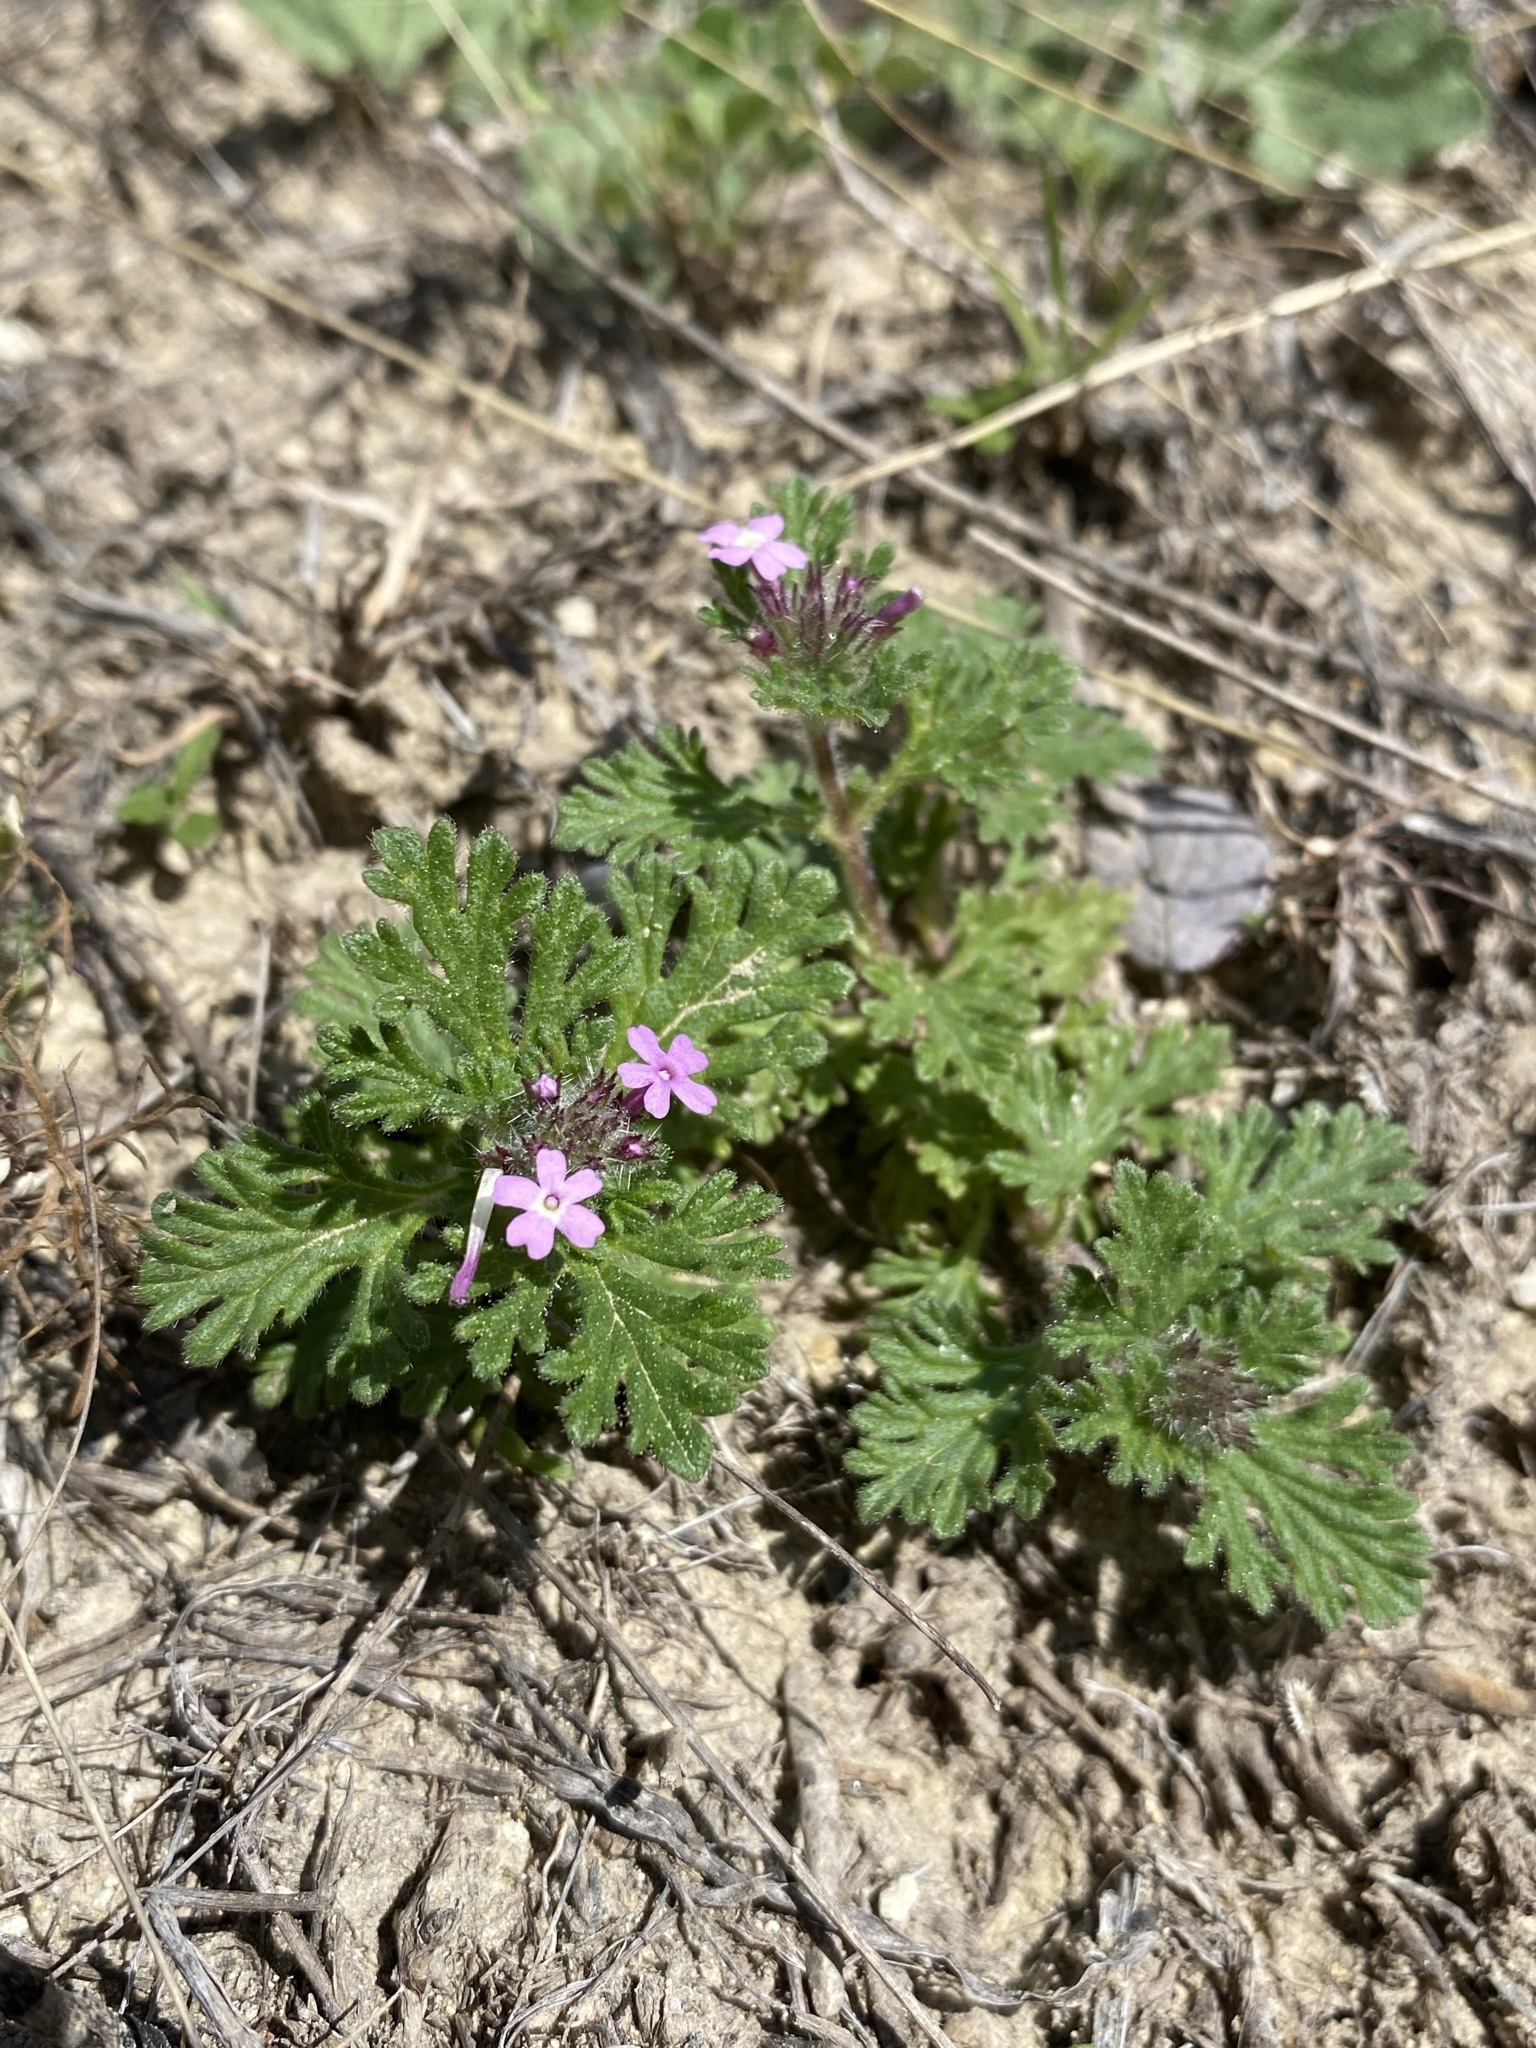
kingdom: Plantae
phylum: Tracheophyta
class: Magnoliopsida
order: Lamiales
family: Verbenaceae
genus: Verbena
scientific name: Verbena pumila
